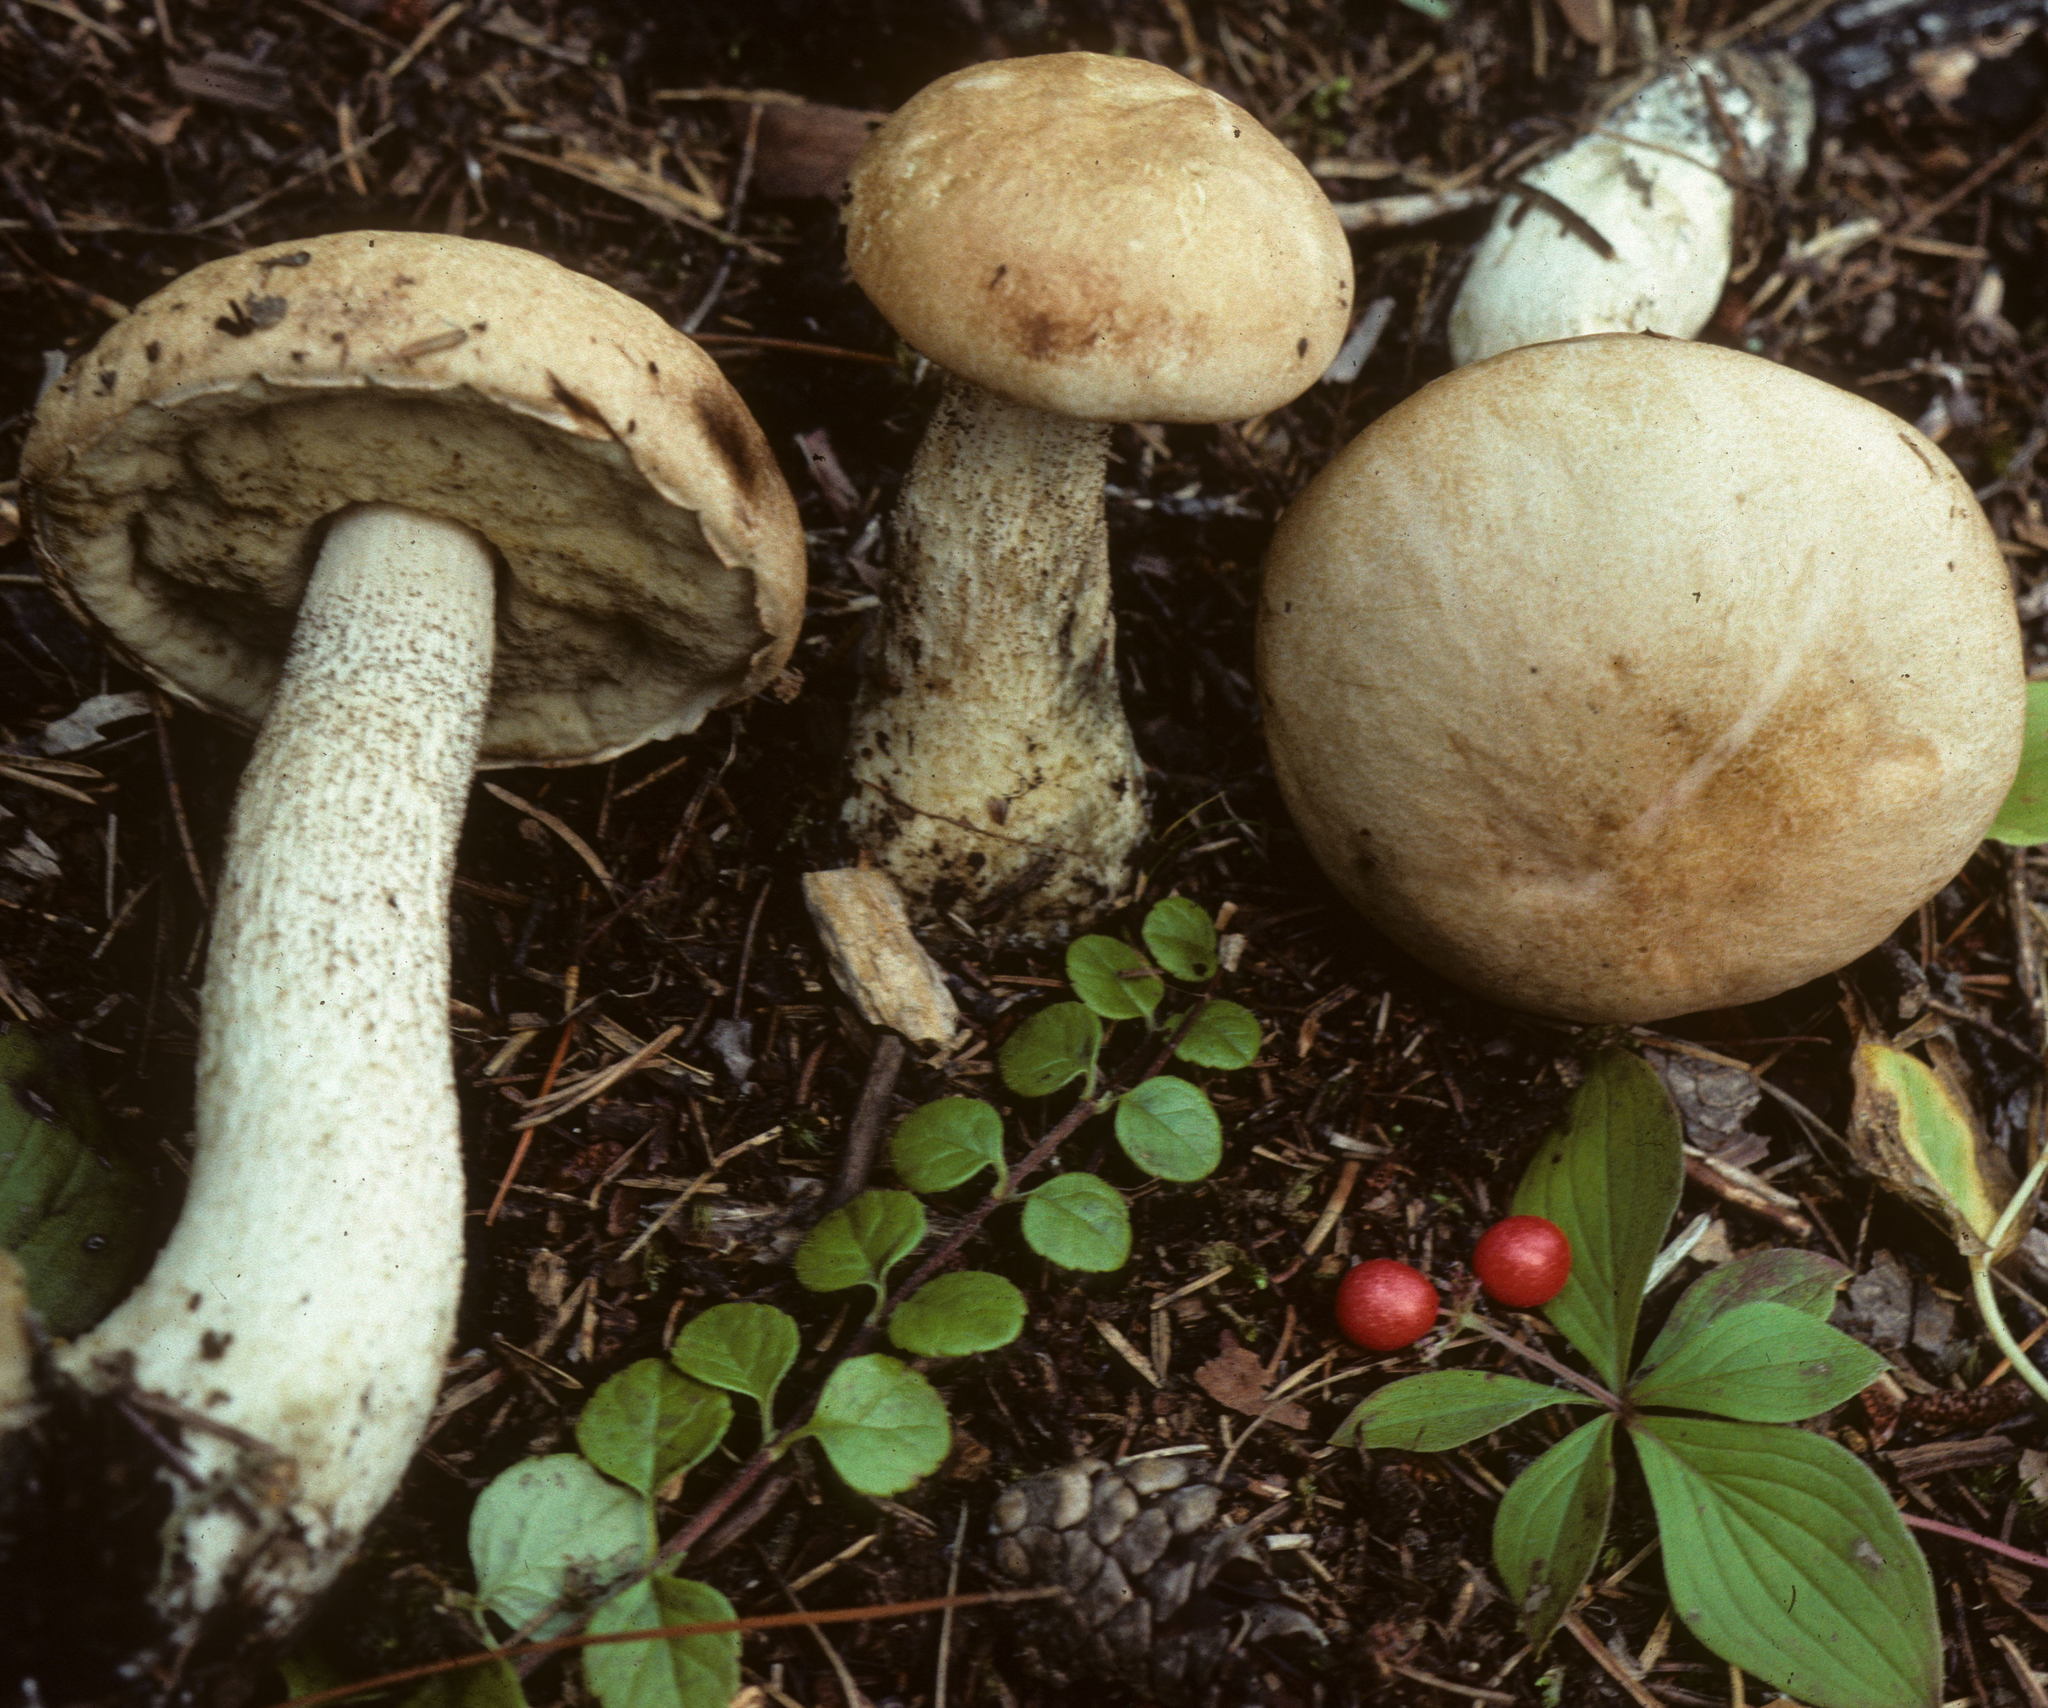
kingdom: Fungi
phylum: Basidiomycota
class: Agaricomycetes
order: Boletales
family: Boletaceae
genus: Leccinum
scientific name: Leccinum areolatum
